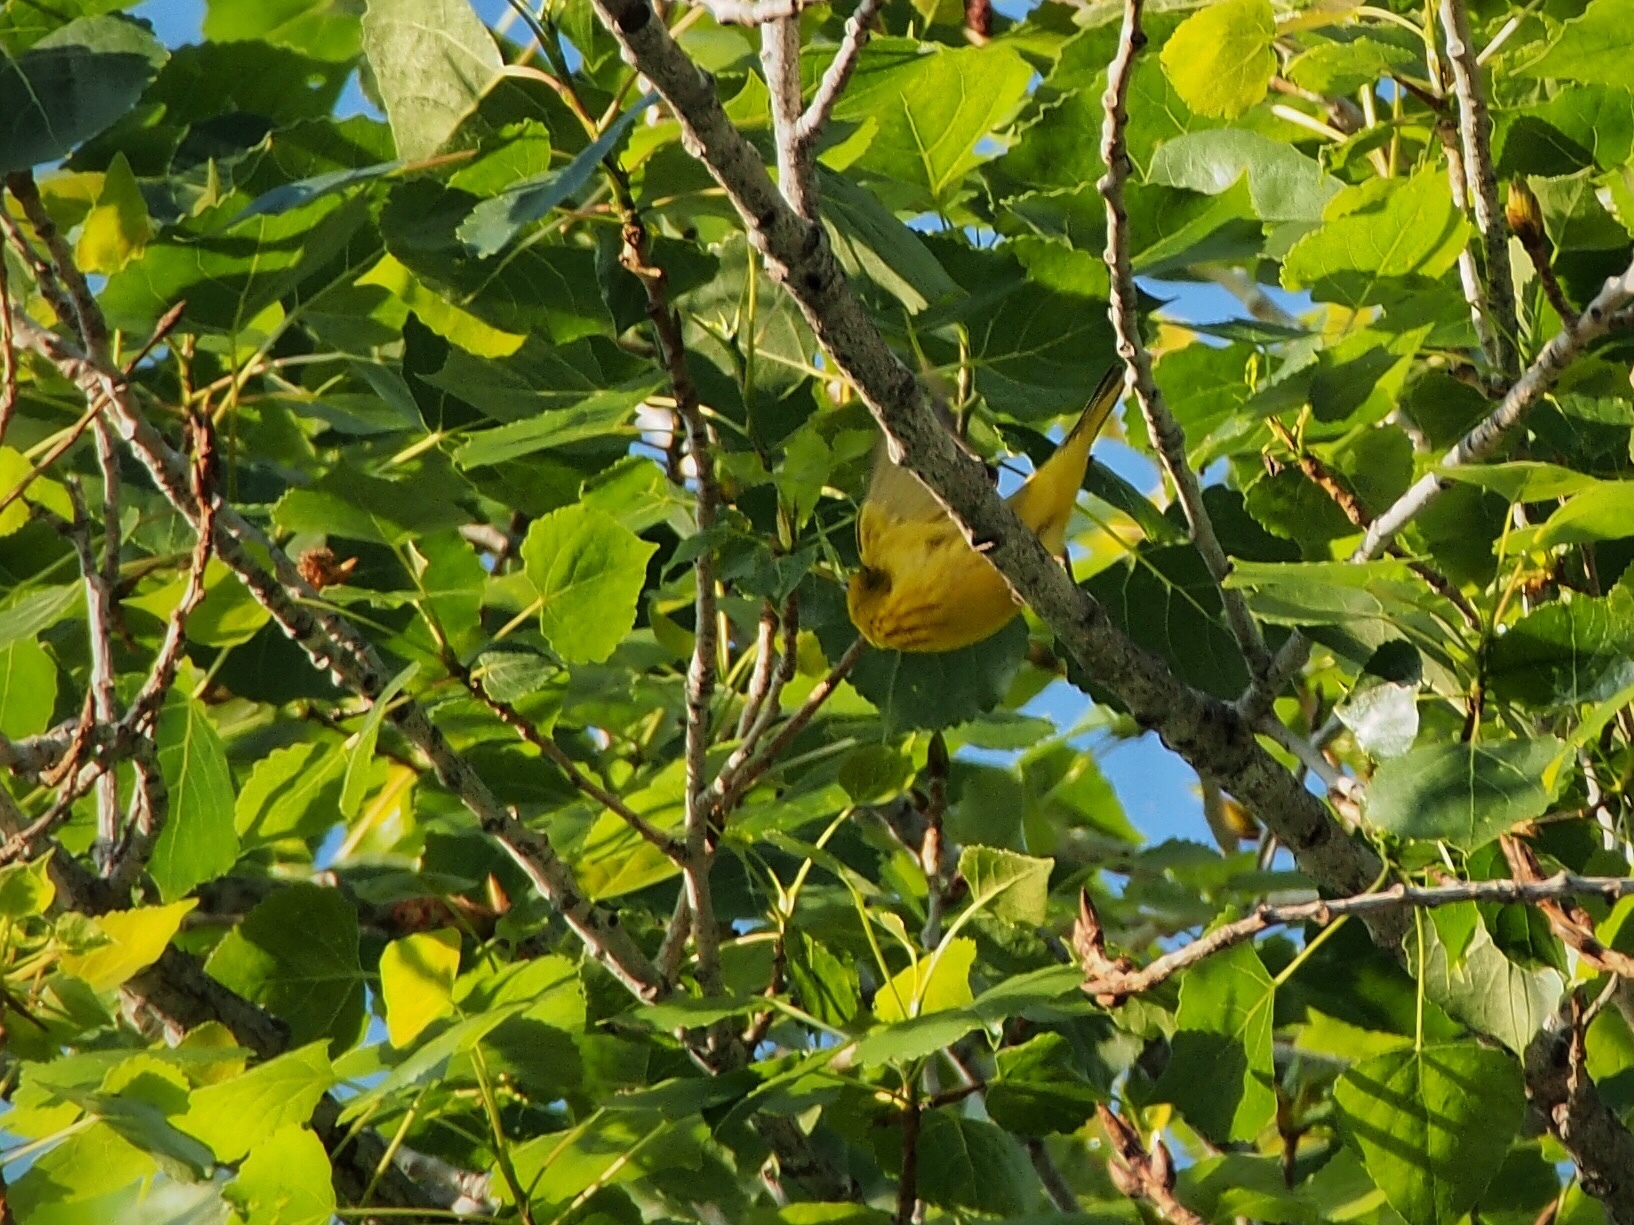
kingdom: Animalia
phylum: Chordata
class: Aves
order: Passeriformes
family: Parulidae
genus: Setophaga
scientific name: Setophaga petechia
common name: Yellow warbler
